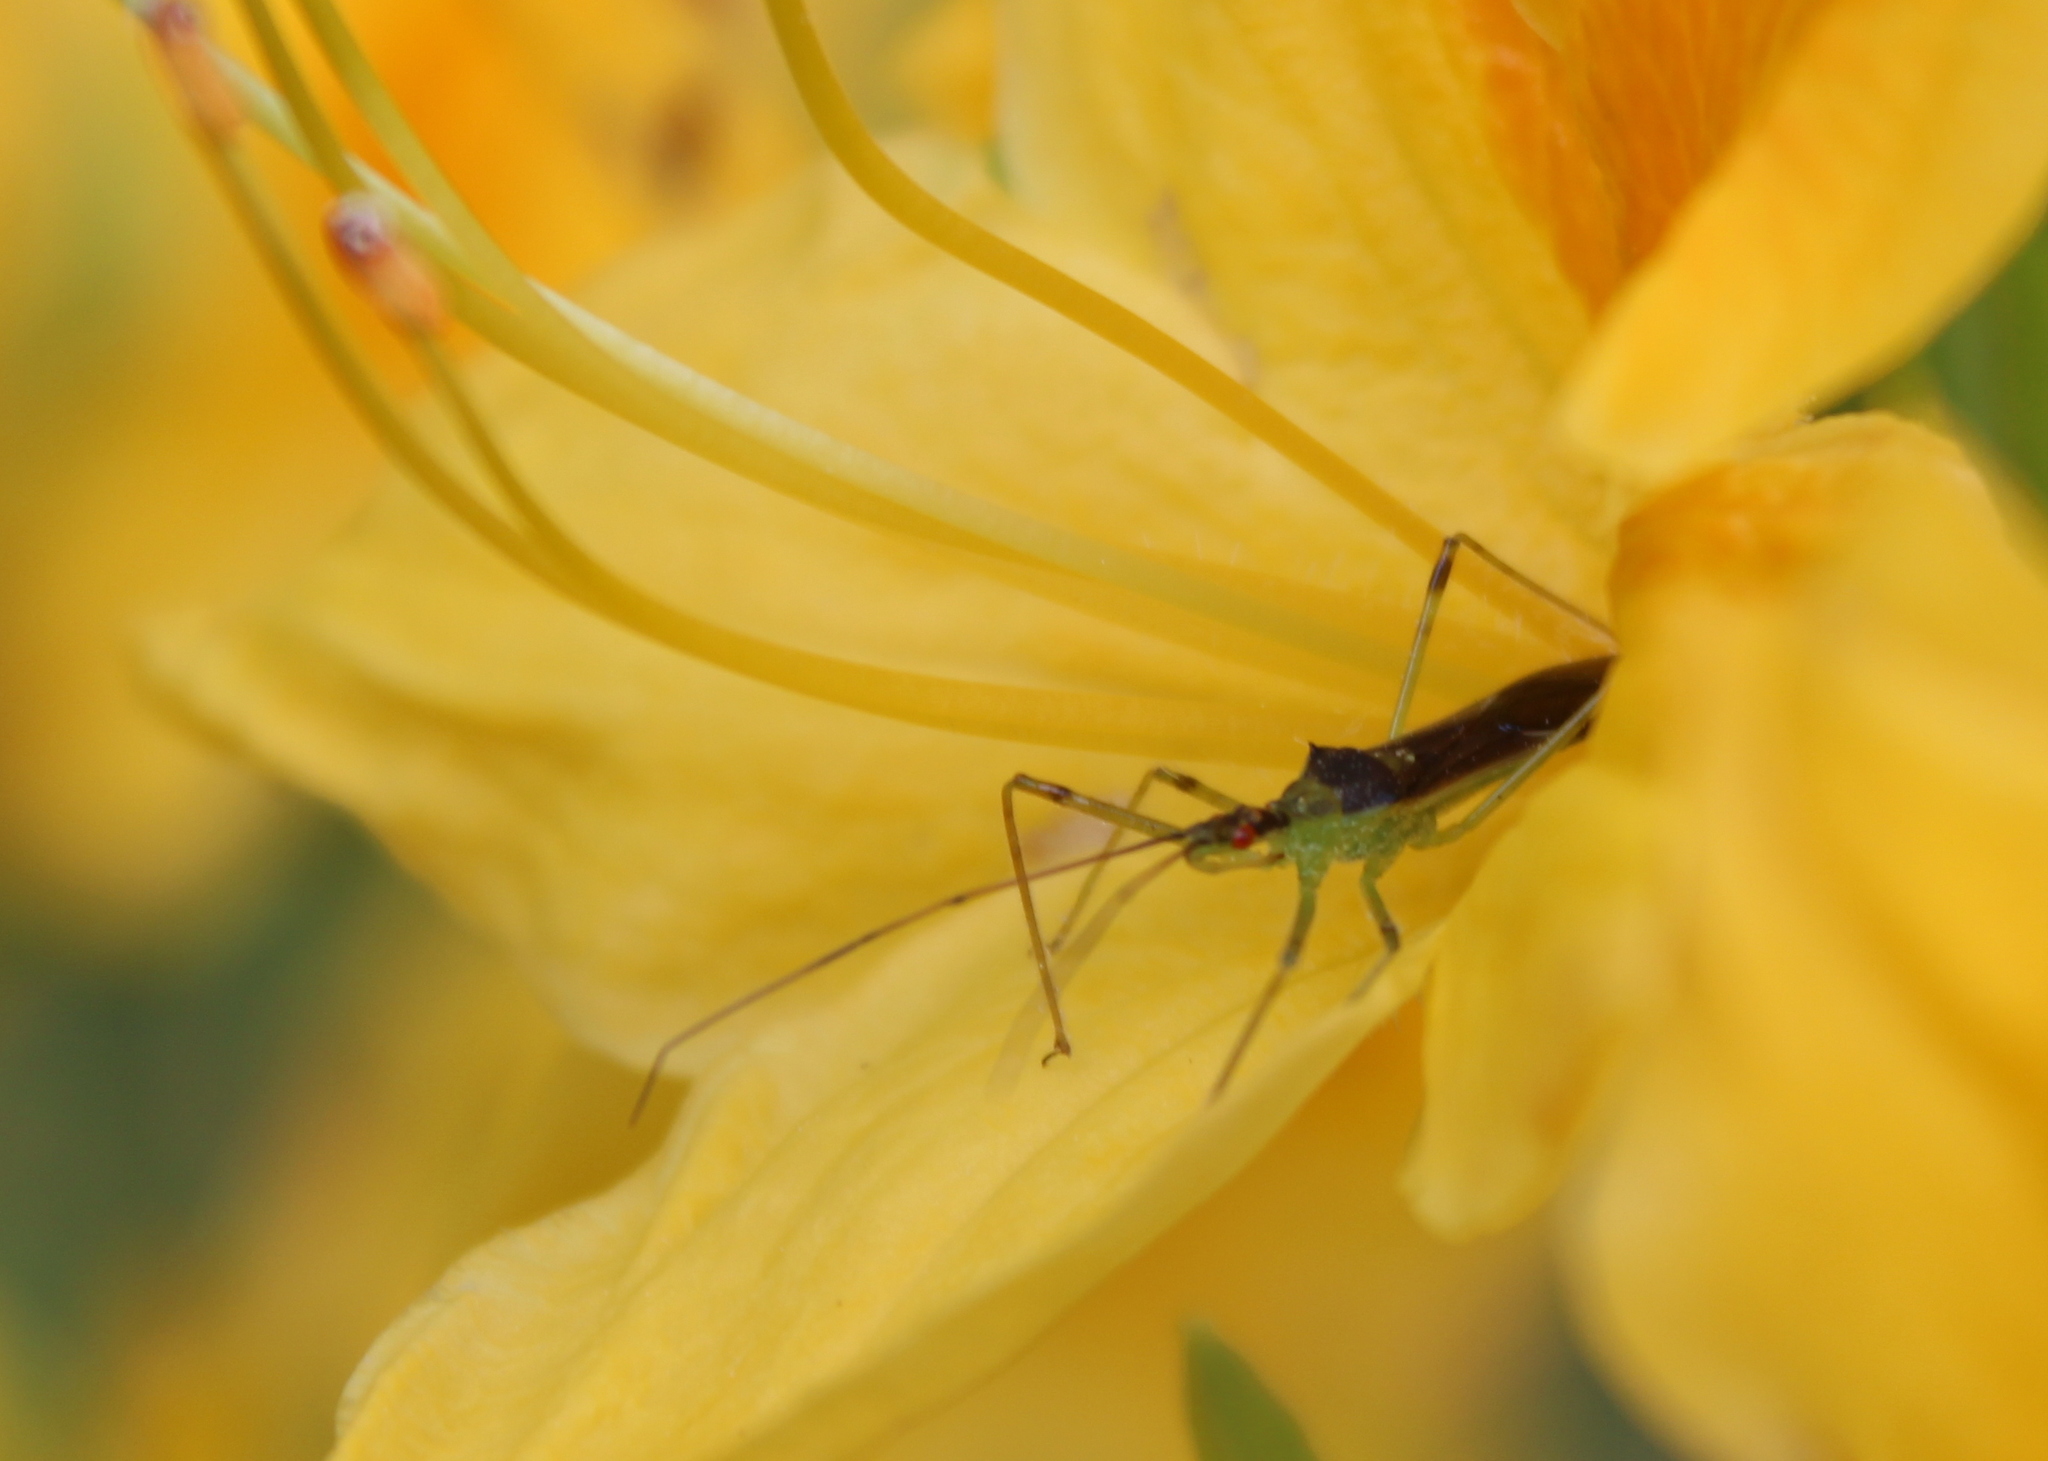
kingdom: Animalia
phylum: Arthropoda
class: Insecta
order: Hemiptera
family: Reduviidae
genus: Zelus
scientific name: Zelus luridus
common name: Pale green assassin bug
